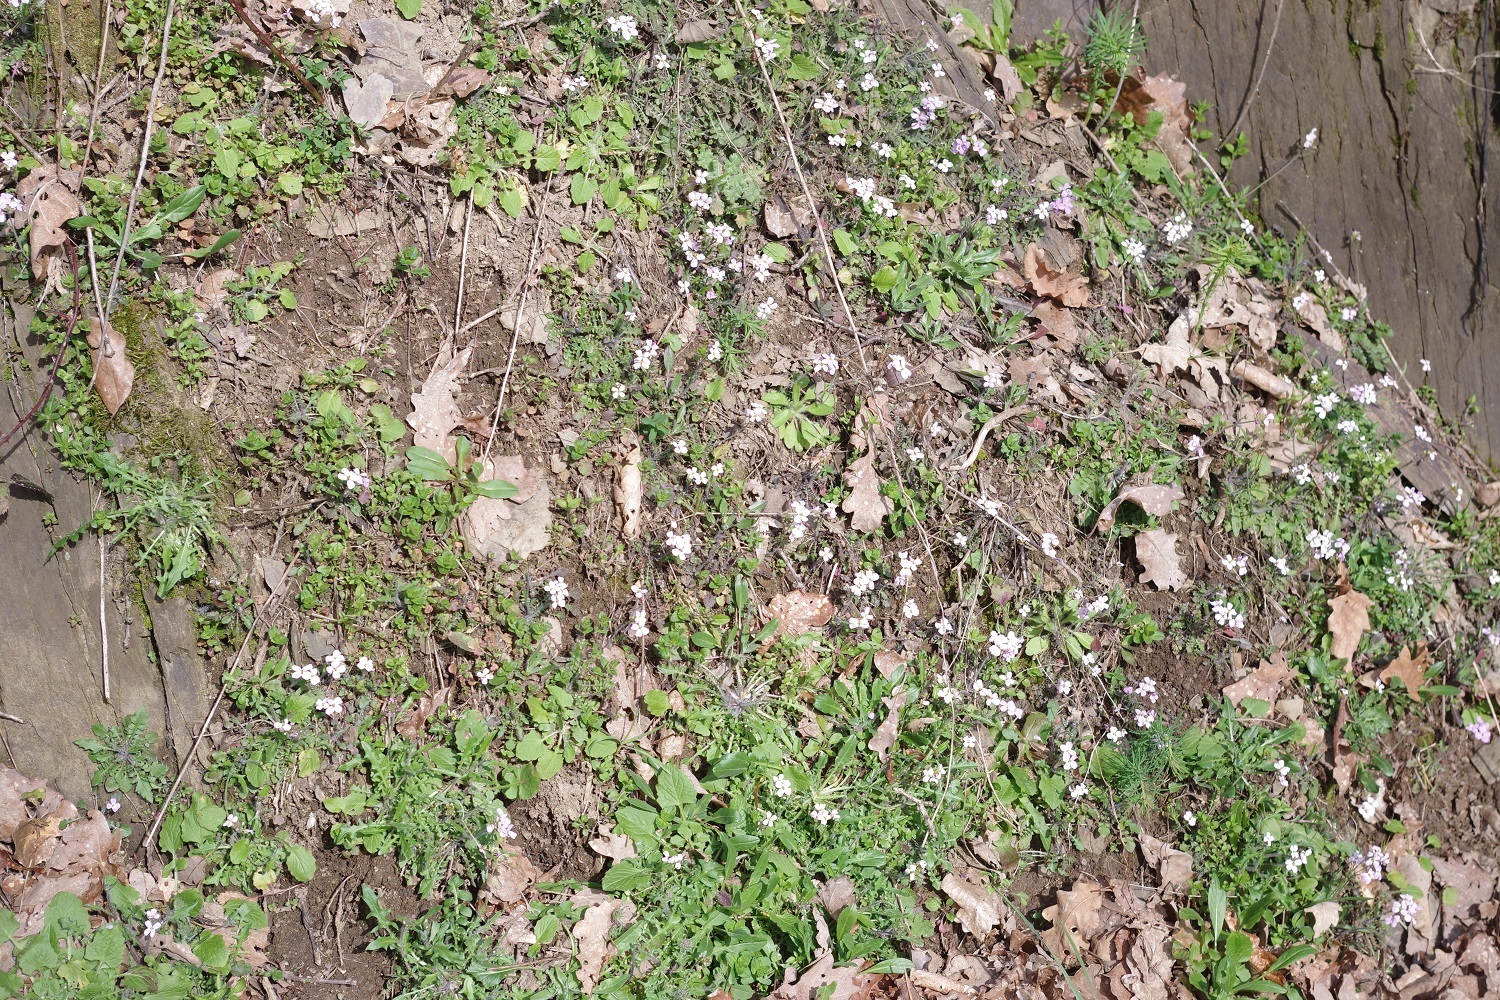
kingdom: Plantae
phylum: Tracheophyta
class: Magnoliopsida
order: Brassicales
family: Brassicaceae
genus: Arabidopsis
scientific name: Arabidopsis arenosa
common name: Sand rock-cress
